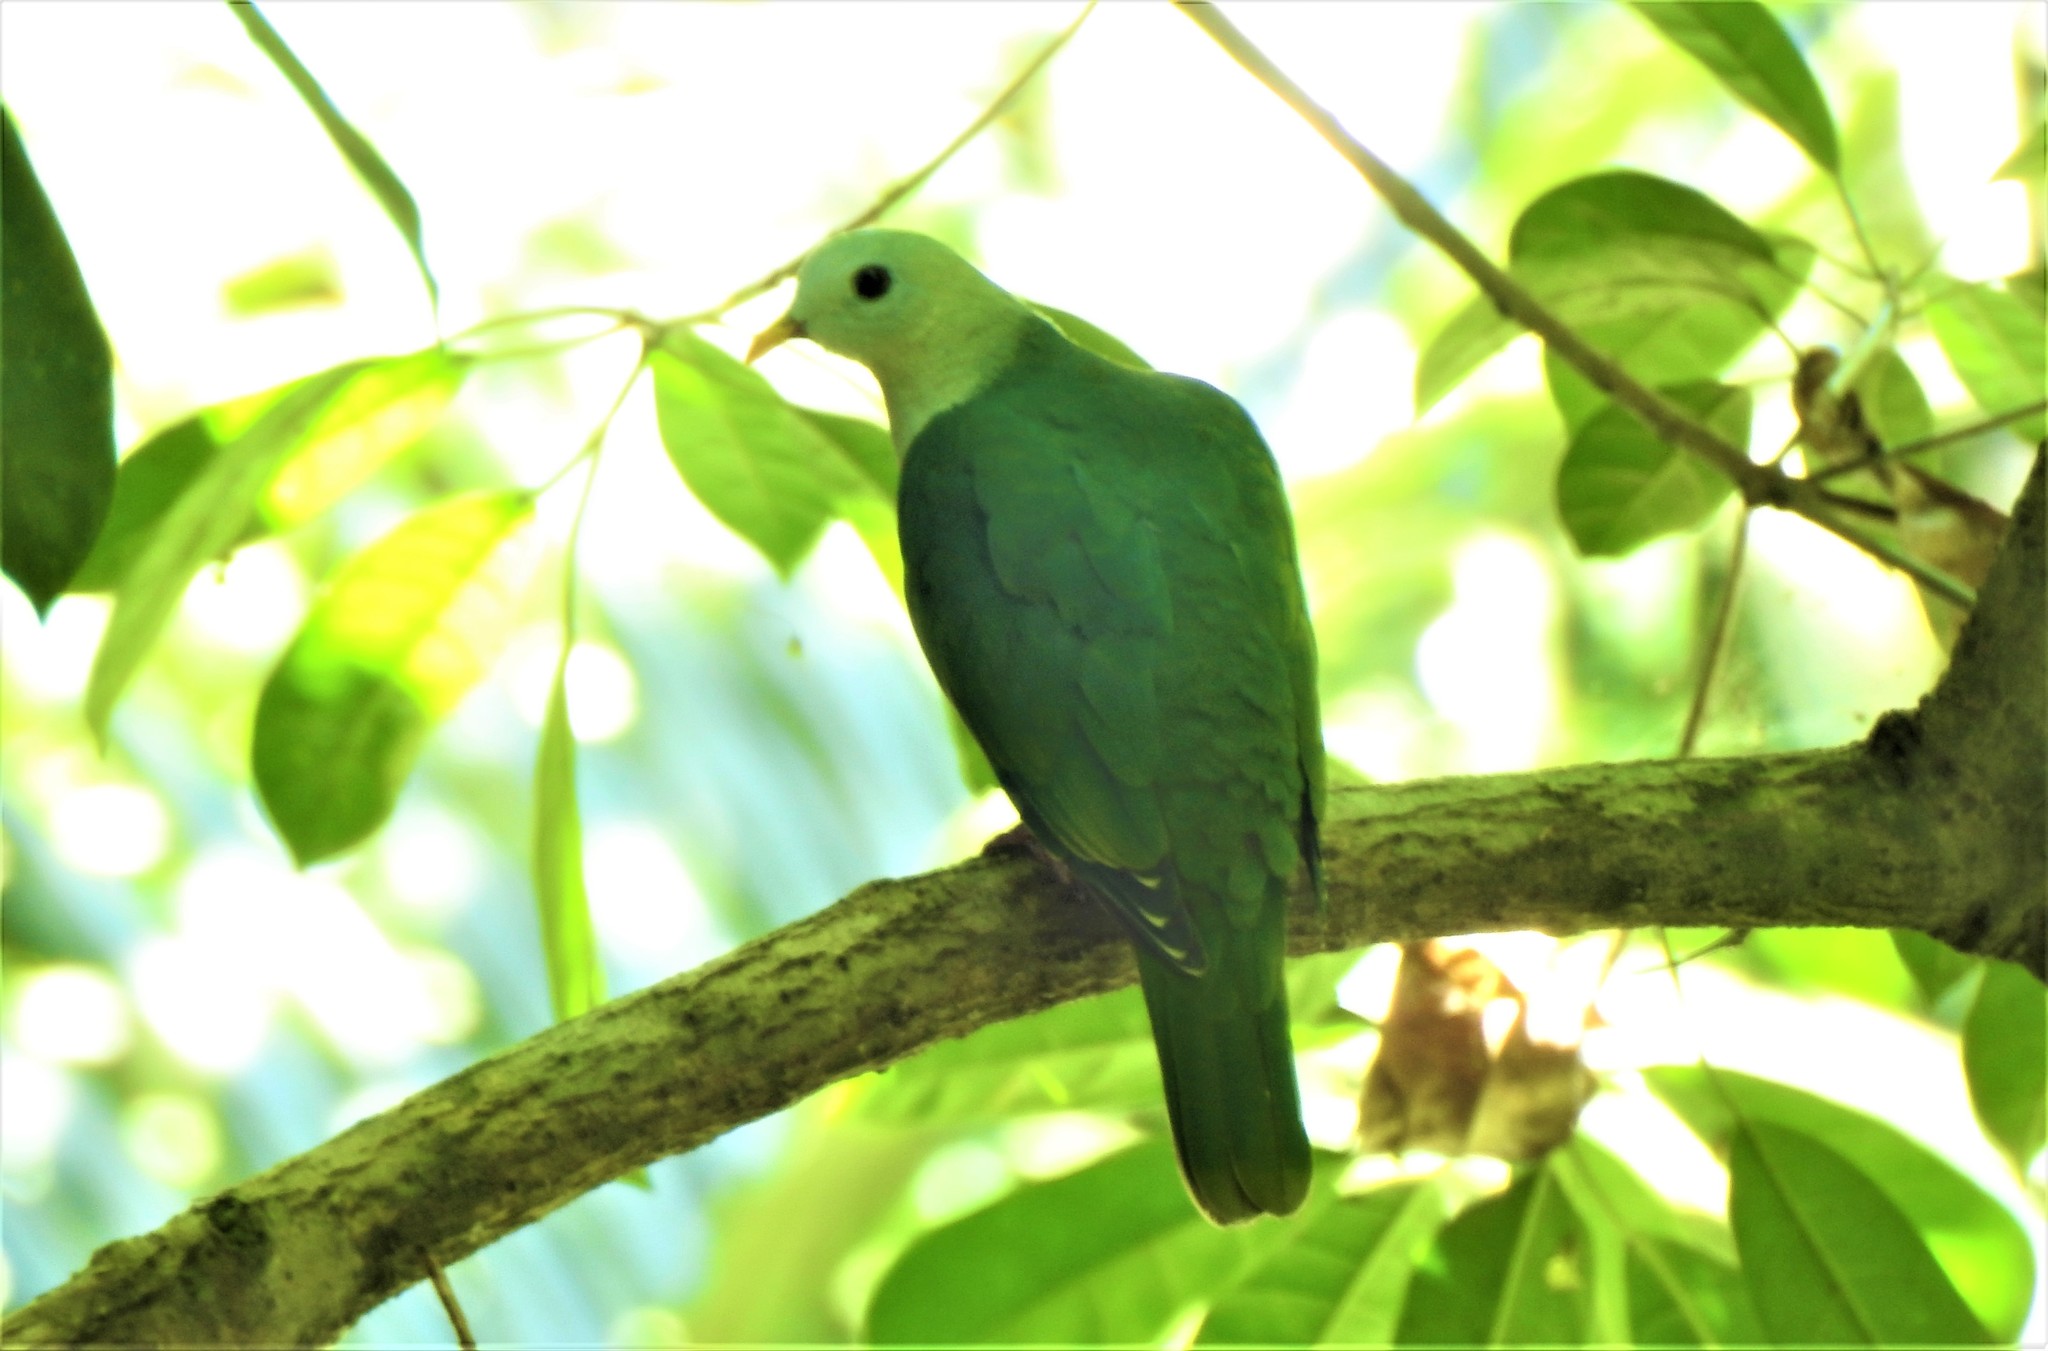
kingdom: Animalia
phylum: Chordata
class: Aves
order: Columbiformes
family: Columbidae
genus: Ptilinopus
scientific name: Ptilinopus leclancheri
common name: Black-chinned fruit dove
